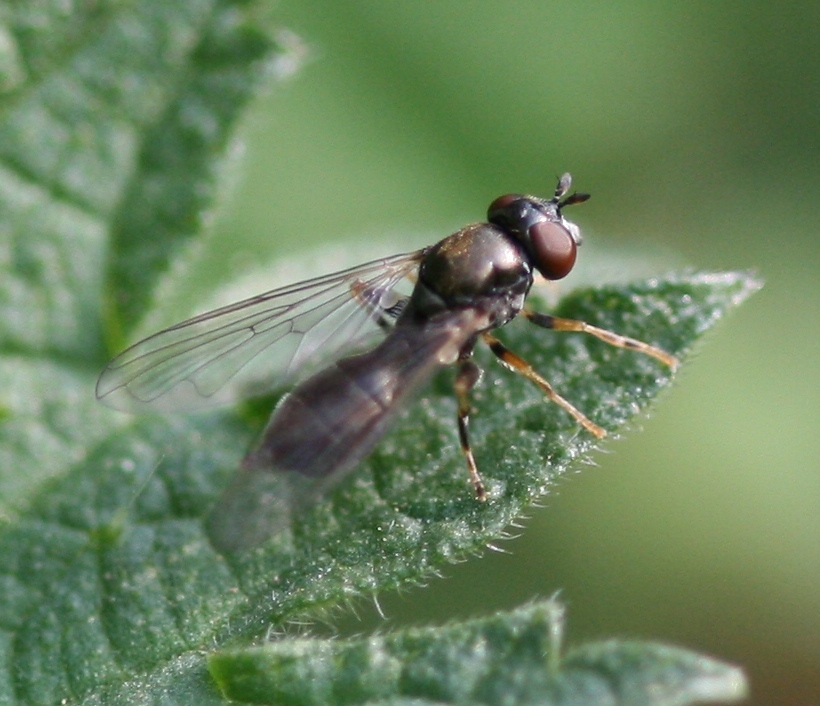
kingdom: Animalia
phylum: Arthropoda
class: Insecta
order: Diptera
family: Syrphidae
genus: Neoascia
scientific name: Neoascia meticulosa
